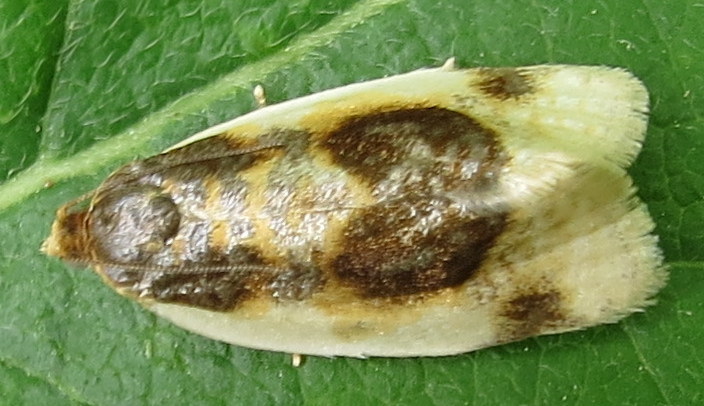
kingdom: Animalia
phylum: Arthropoda
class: Insecta
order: Lepidoptera
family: Tortricidae
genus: Clepsis
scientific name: Clepsis melaleucanus
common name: American apple tortrix
